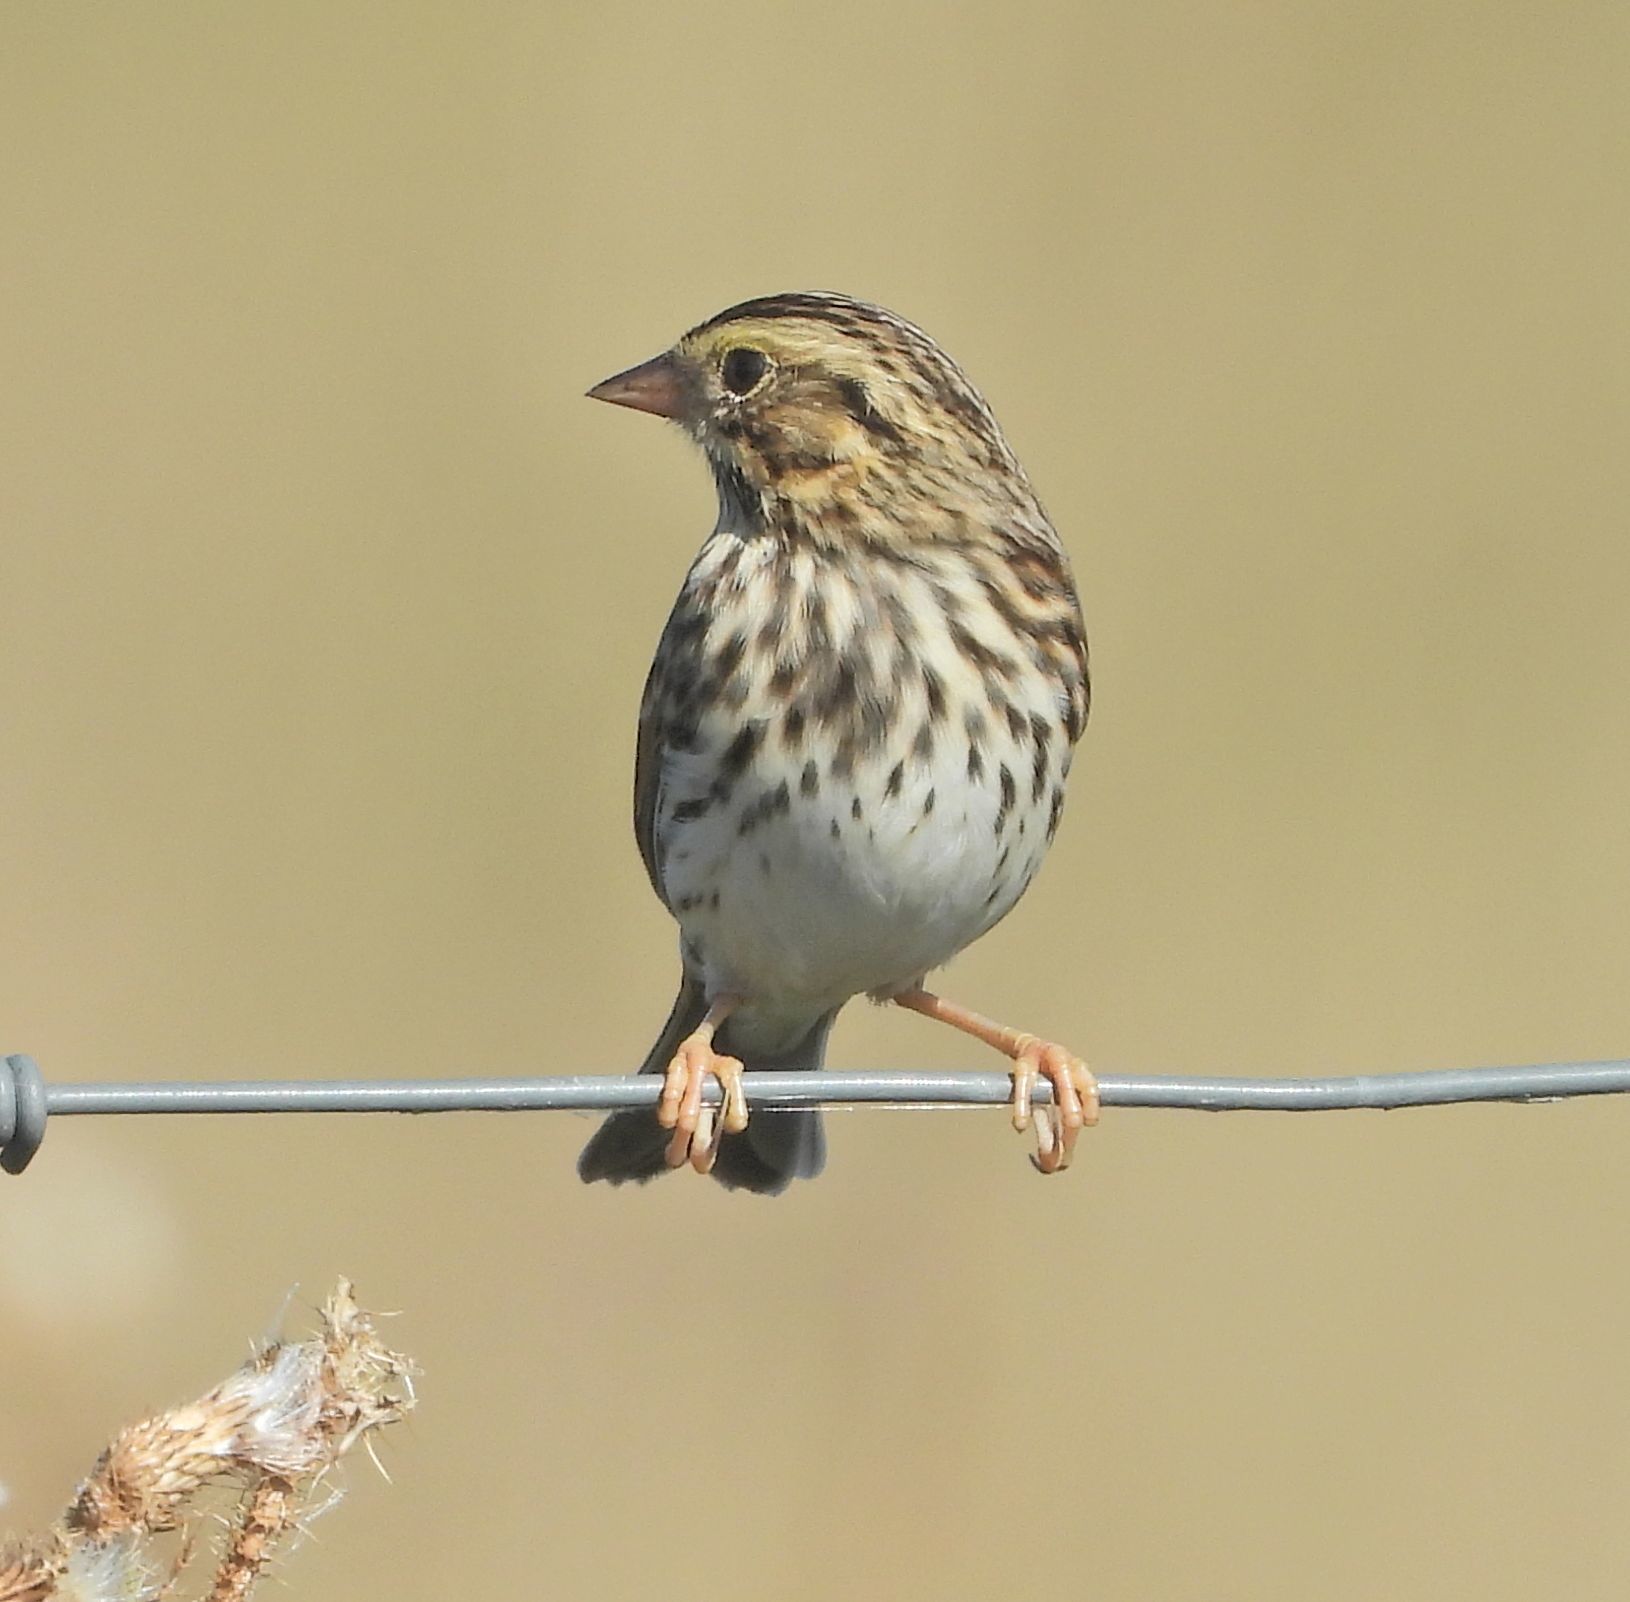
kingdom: Animalia
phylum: Chordata
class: Aves
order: Passeriformes
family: Passerellidae
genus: Passerculus
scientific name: Passerculus sandwichensis
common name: Savannah sparrow
